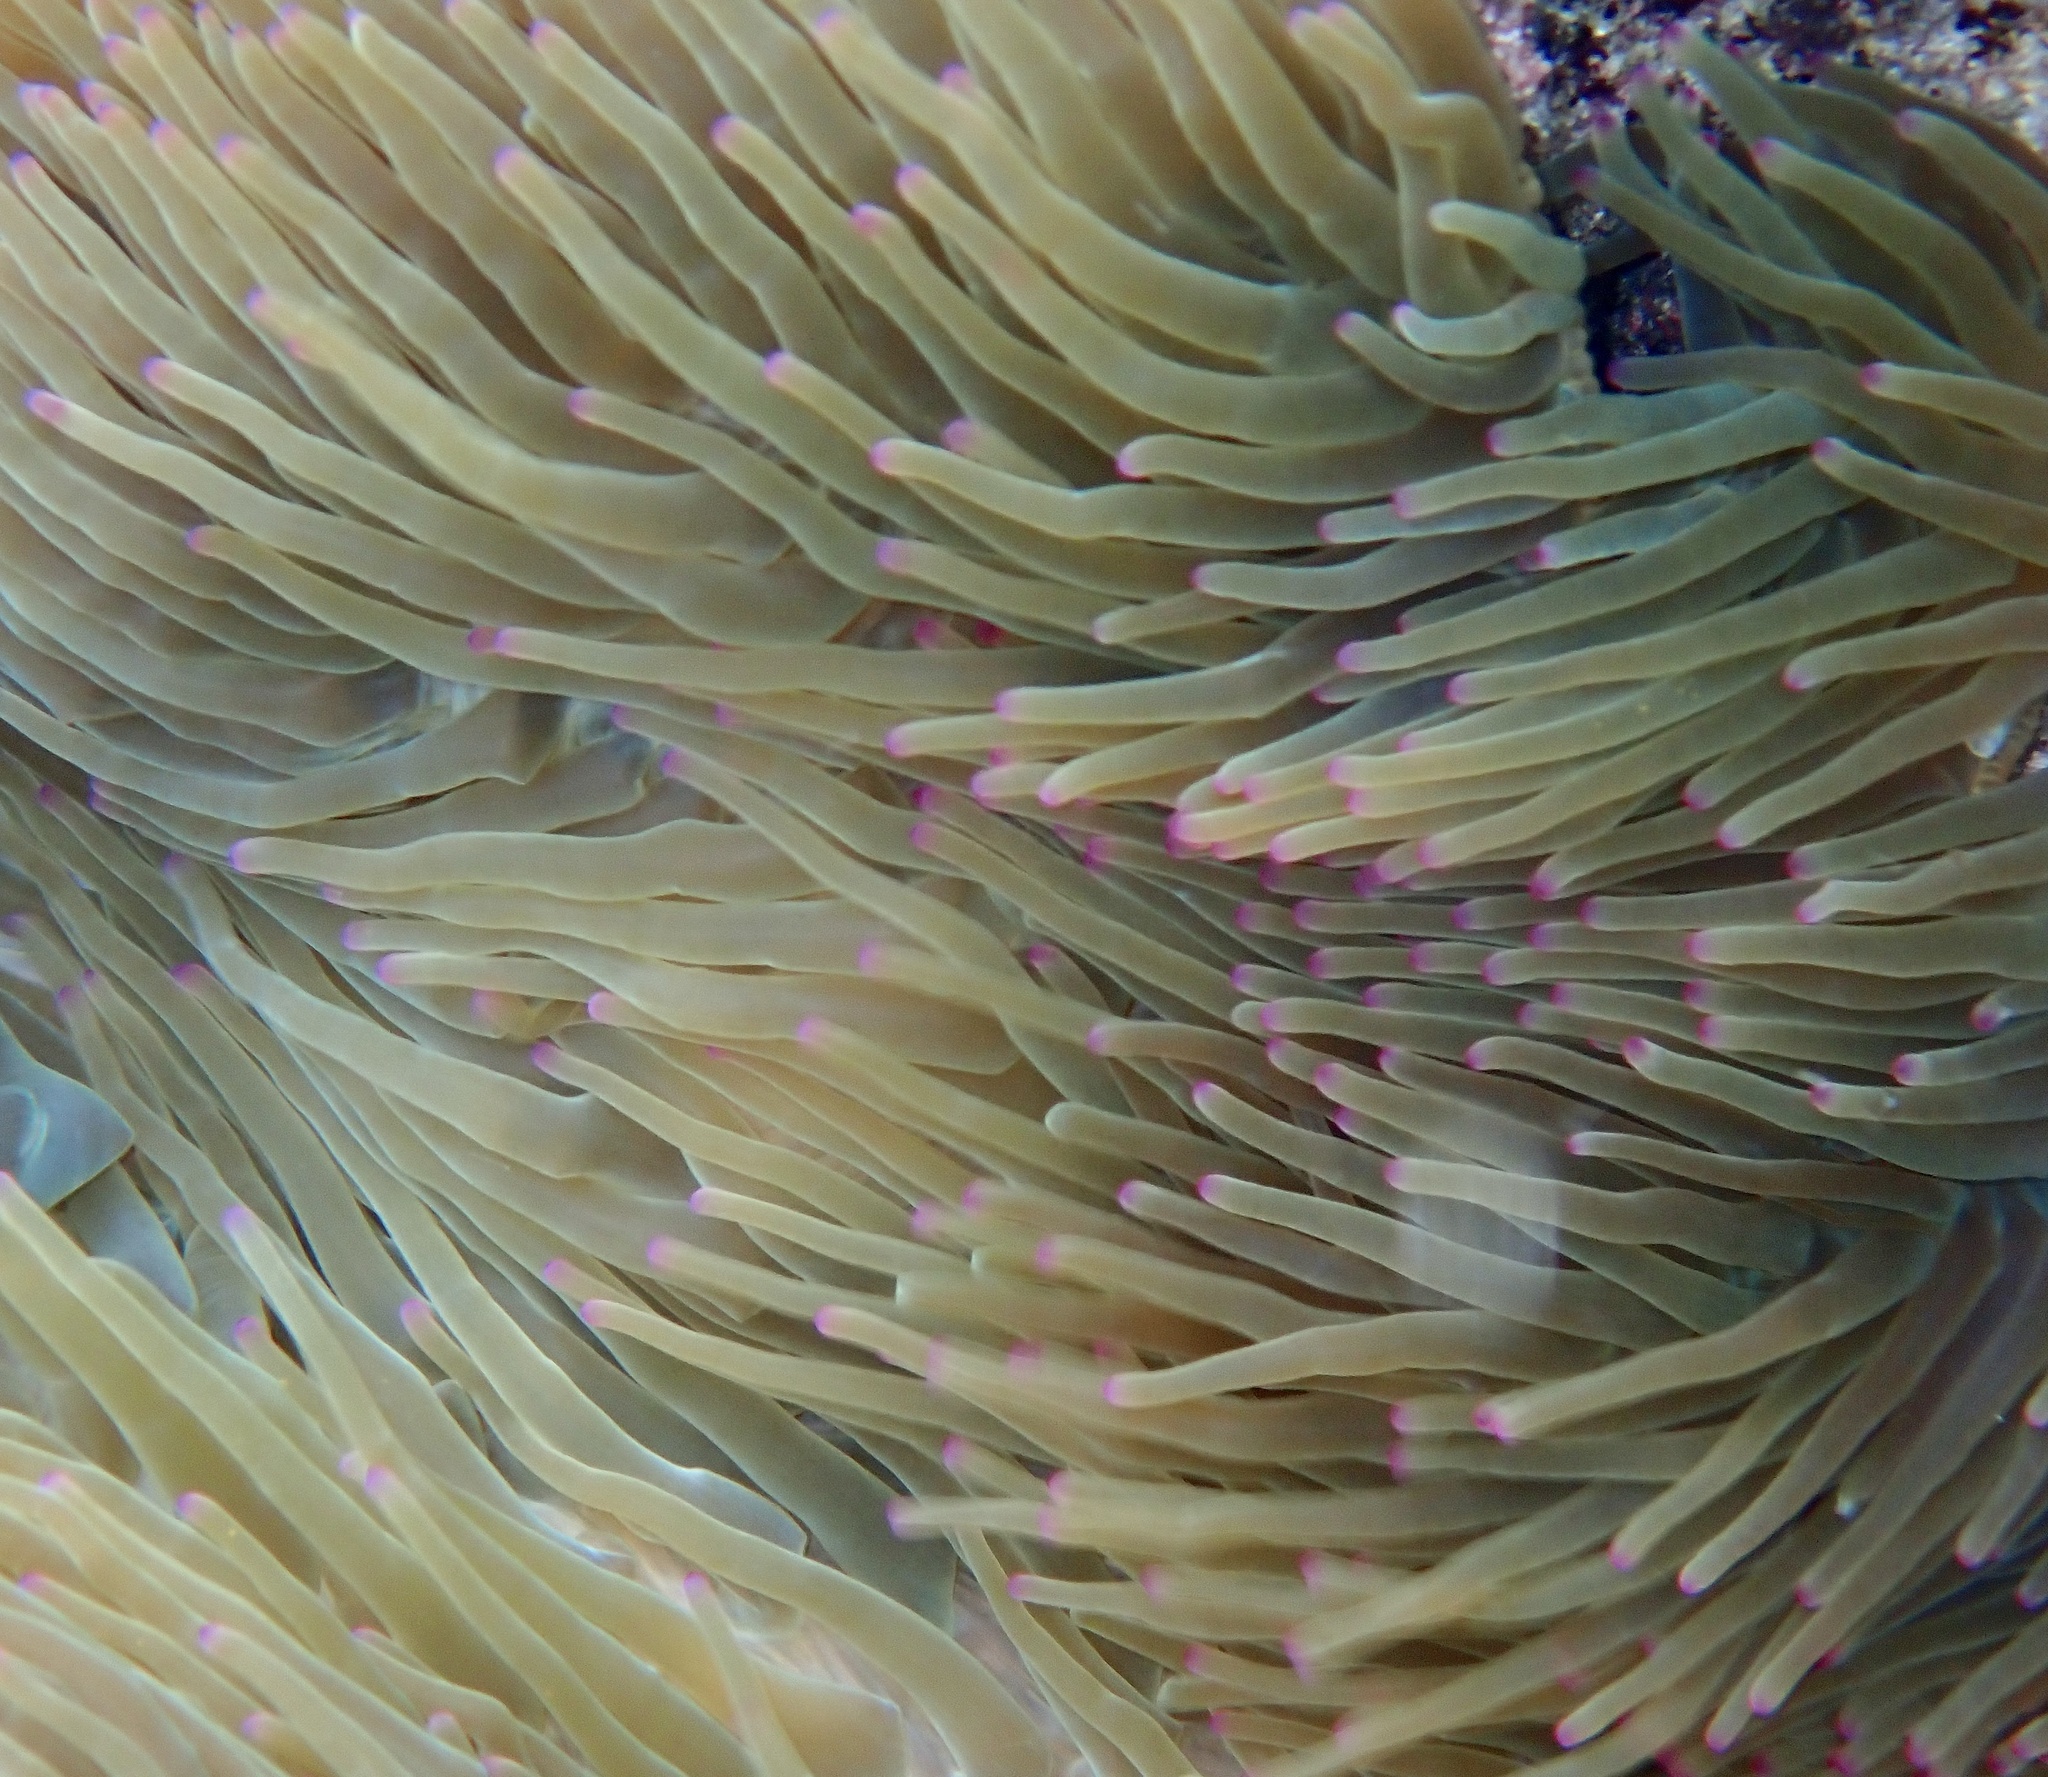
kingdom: Animalia
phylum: Cnidaria
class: Anthozoa
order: Actiniaria
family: Actiniidae
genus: Entacmaea
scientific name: Entacmaea quadricolor
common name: Bulb tentacle sea anemone
